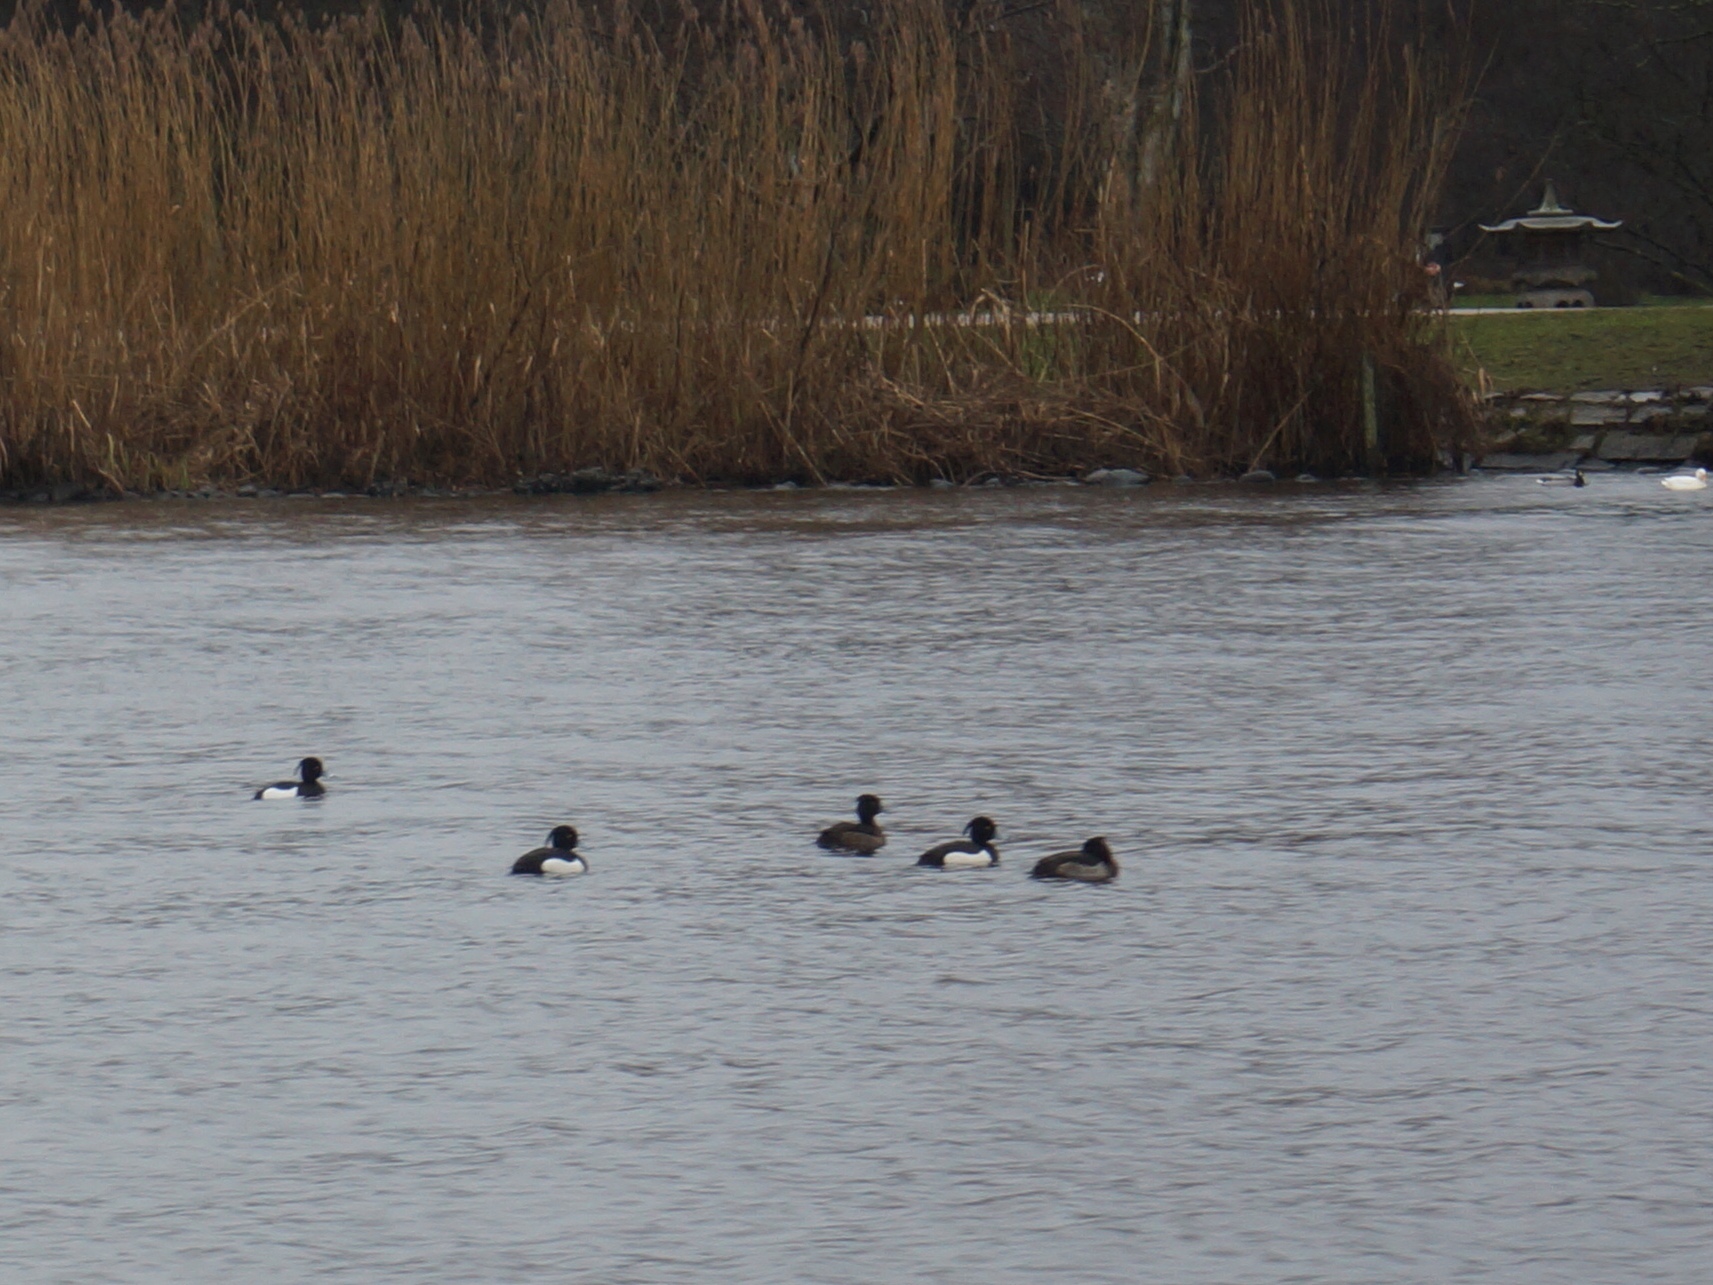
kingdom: Animalia
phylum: Chordata
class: Aves
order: Anseriformes
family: Anatidae
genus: Aythya
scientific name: Aythya fuligula
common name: Tufted duck
